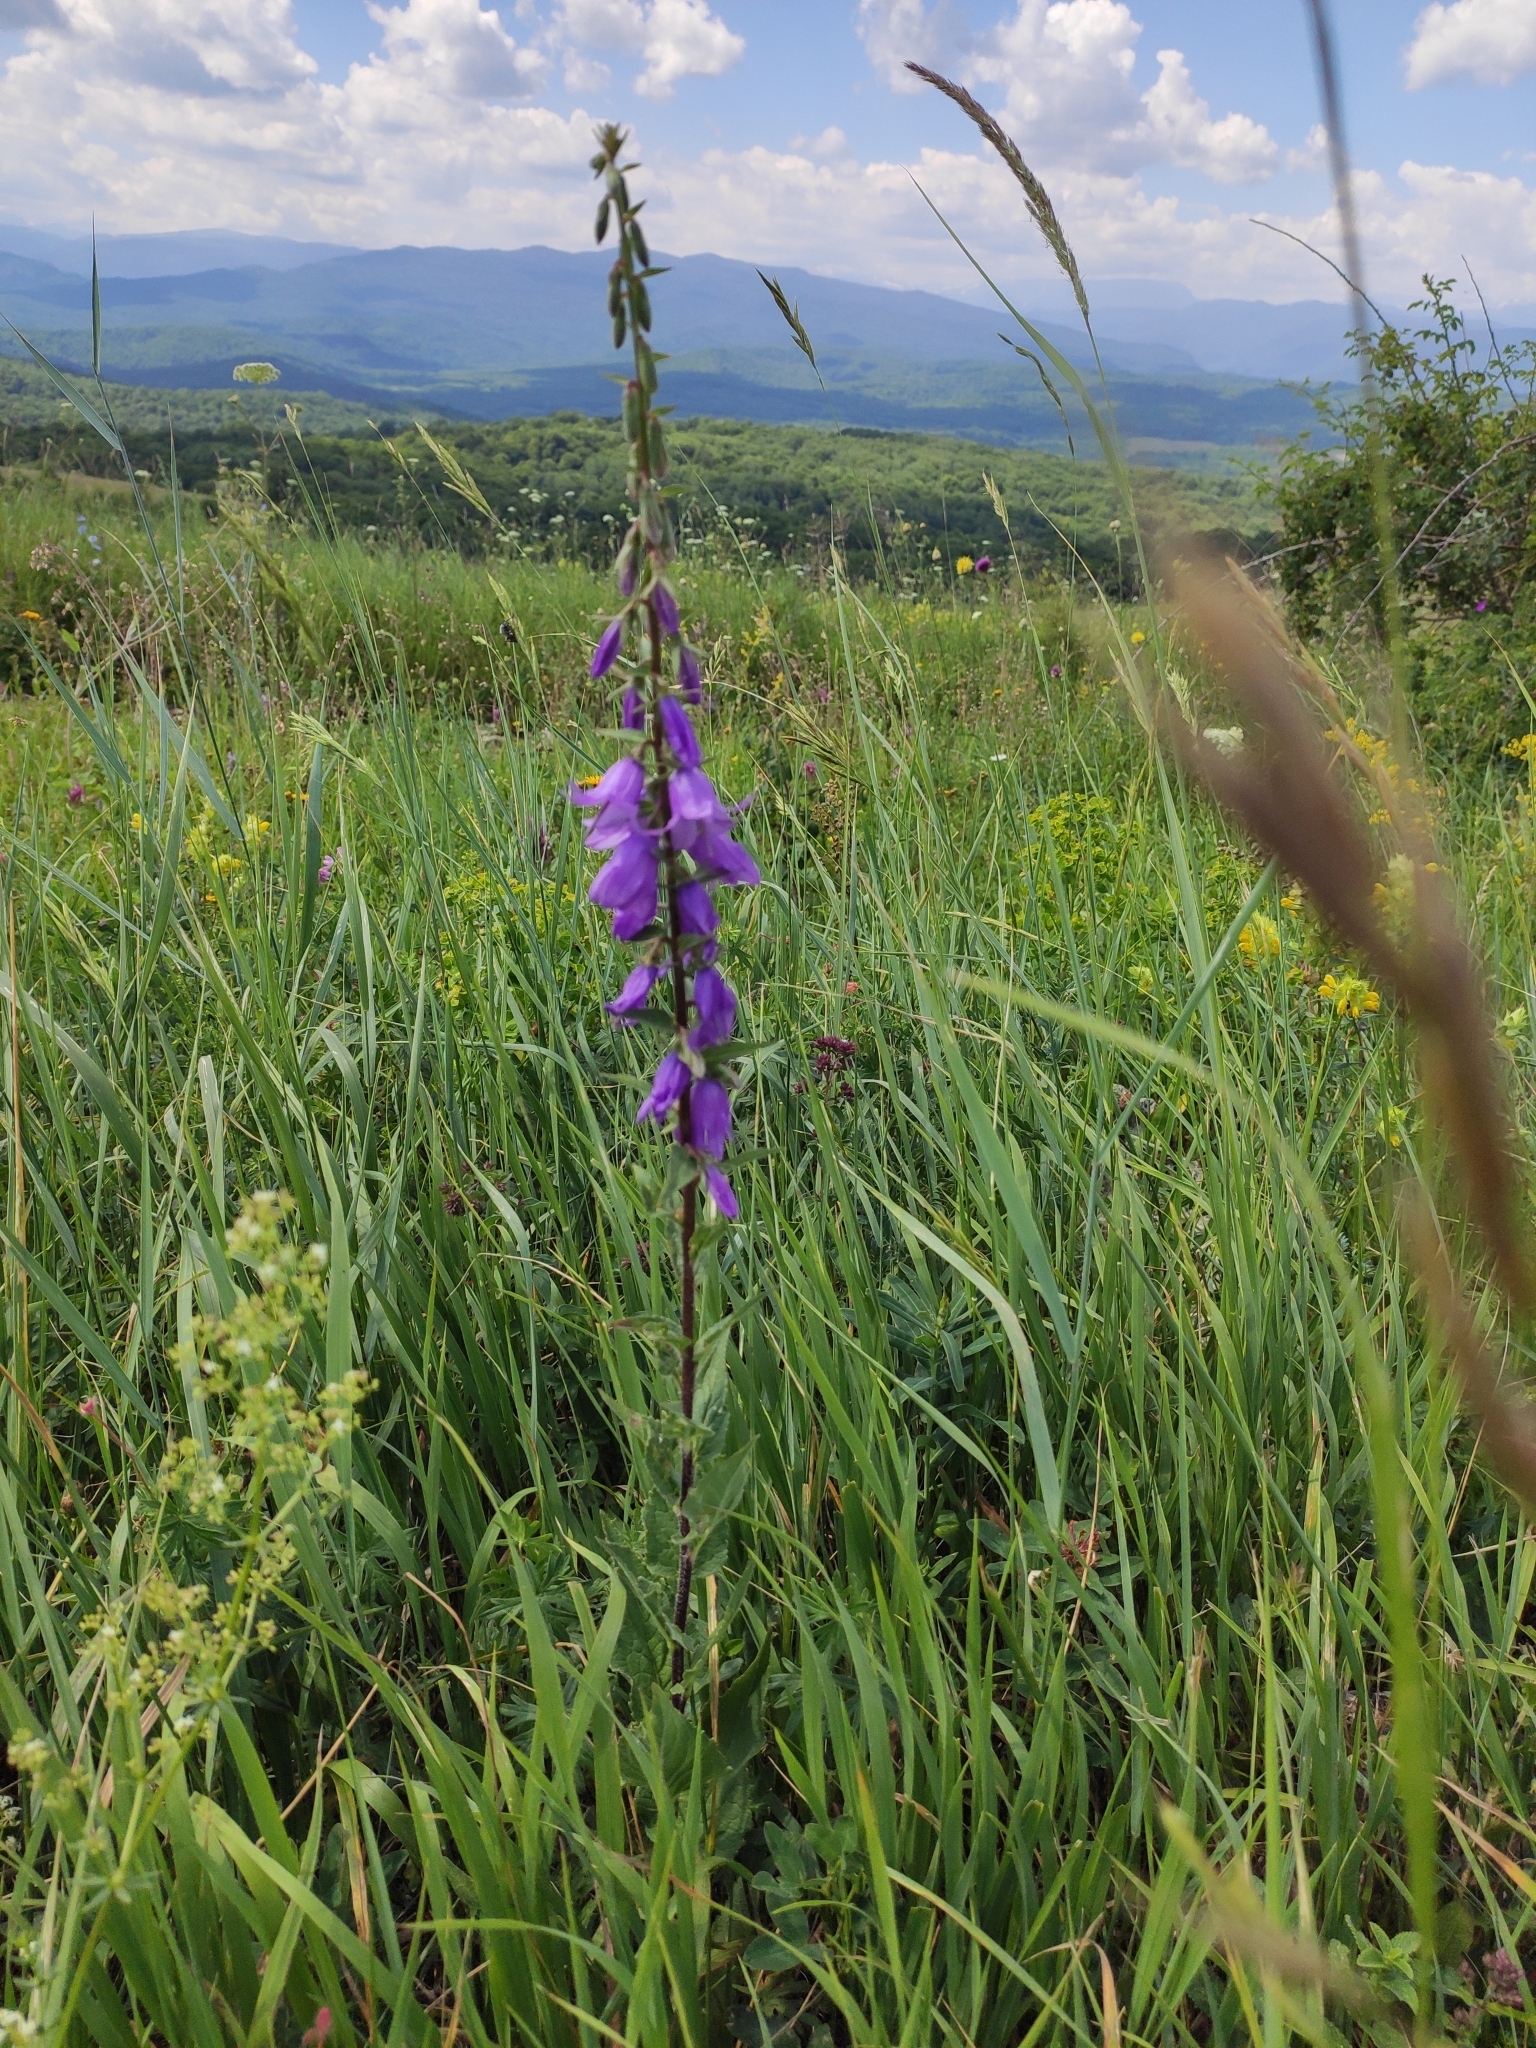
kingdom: Plantae
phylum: Tracheophyta
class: Magnoliopsida
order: Asterales
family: Campanulaceae
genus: Campanula
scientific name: Campanula bononiensis
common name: Pale bellflower
